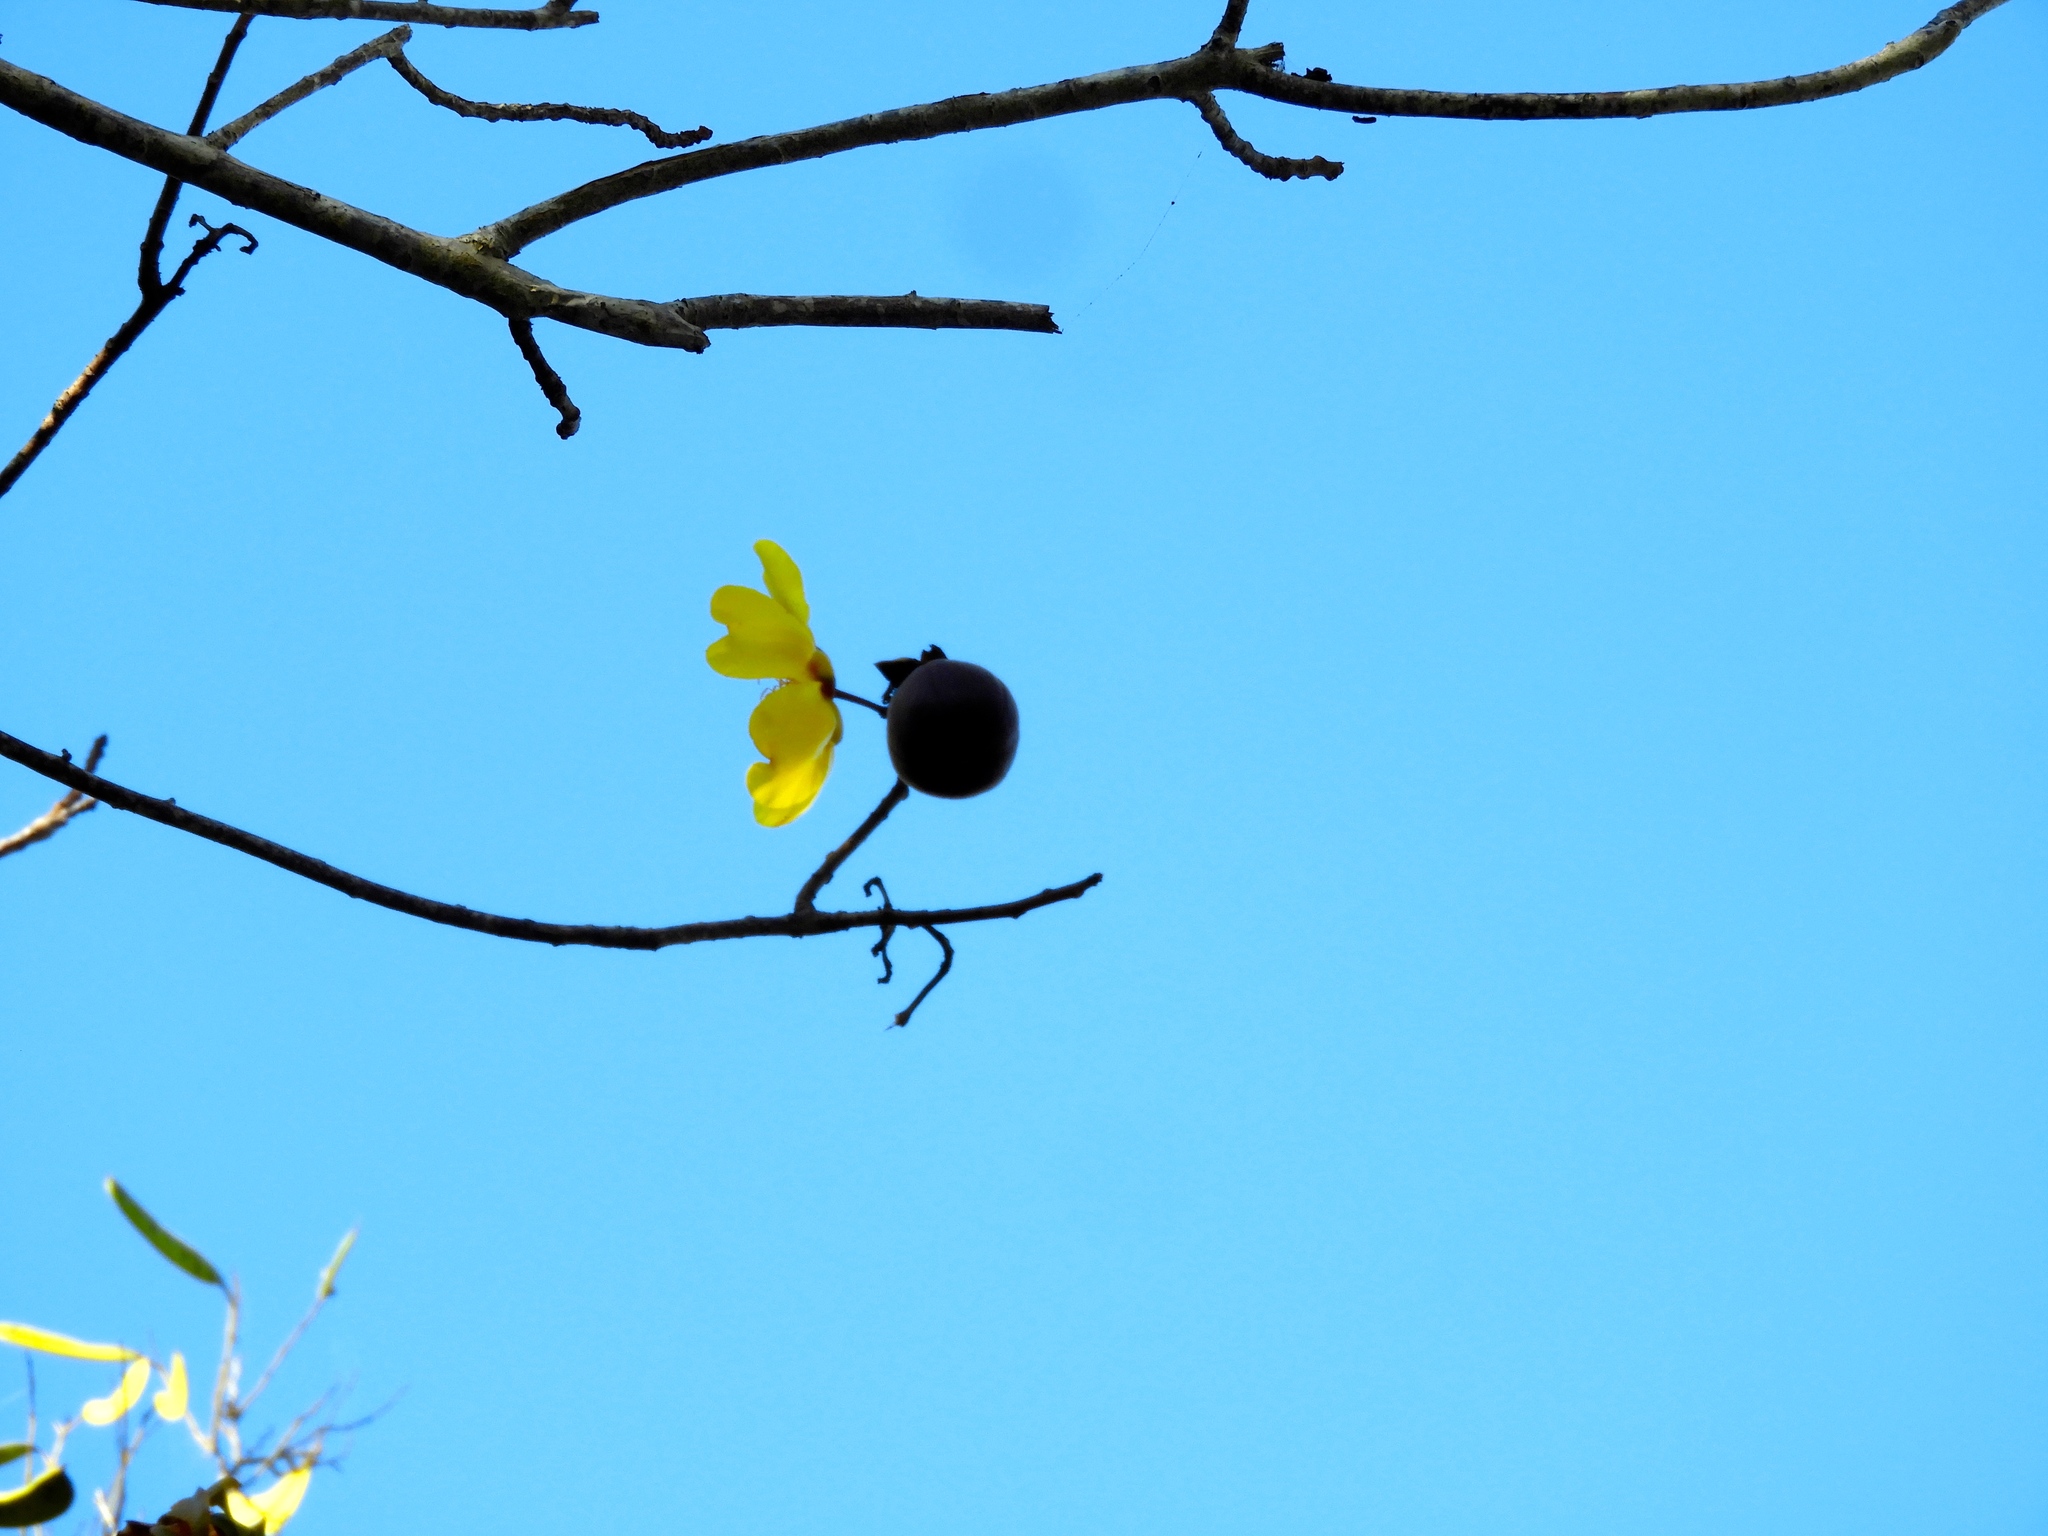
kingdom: Plantae
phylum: Tracheophyta
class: Magnoliopsida
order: Malvales
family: Cochlospermaceae
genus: Cochlospermum
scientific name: Cochlospermum vitifolium
